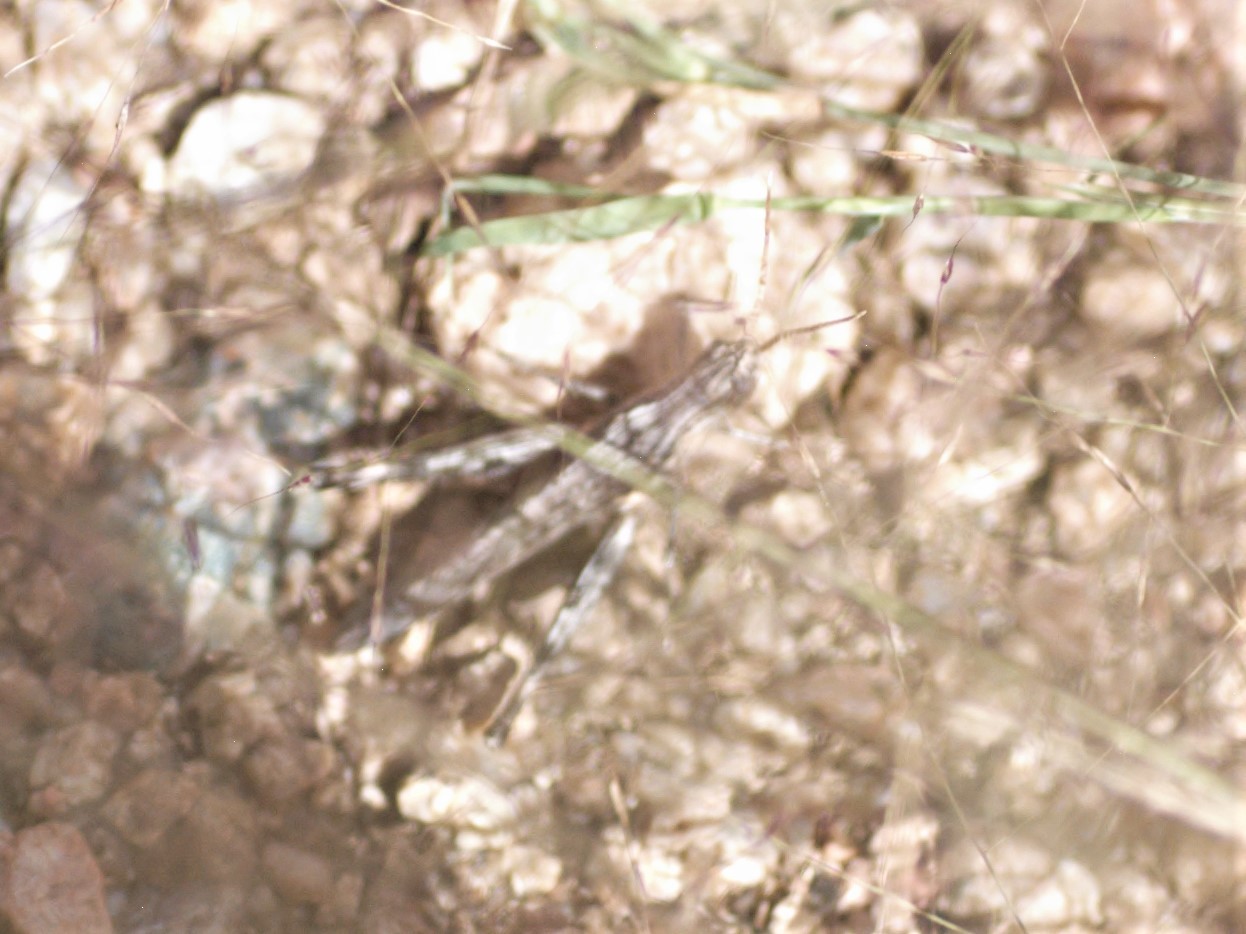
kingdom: Animalia
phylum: Arthropoda
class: Insecta
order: Orthoptera
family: Acrididae
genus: Acantherus
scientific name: Acantherus piperatus
